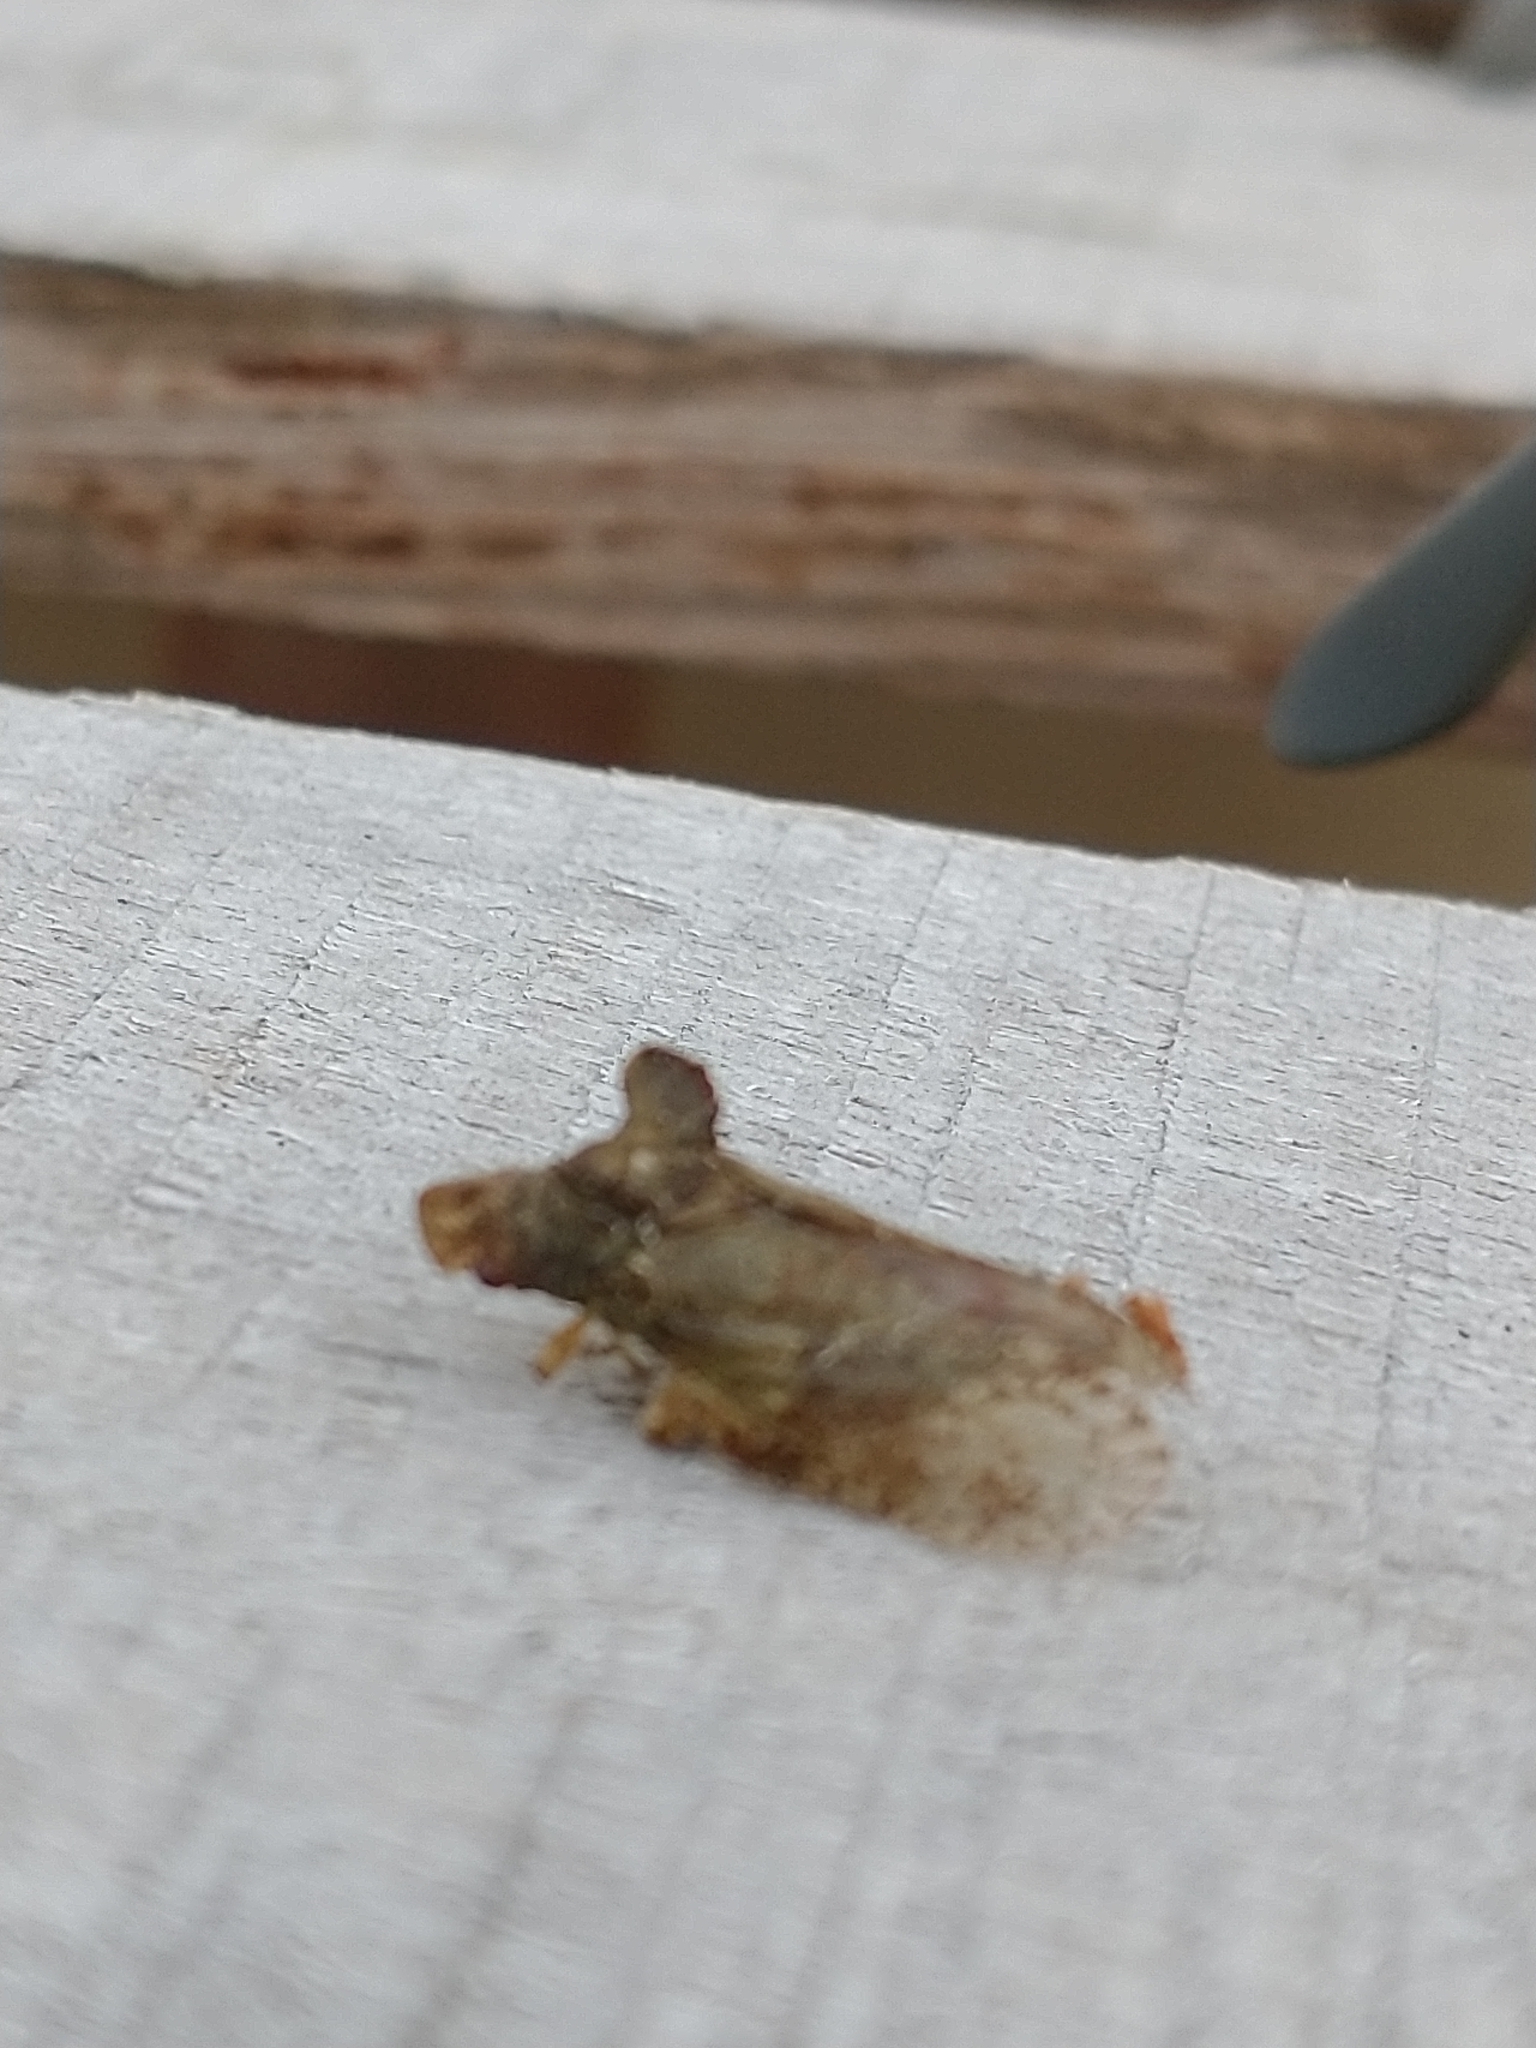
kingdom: Animalia
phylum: Arthropoda
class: Insecta
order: Hemiptera
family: Cicadellidae
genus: Ledra
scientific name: Ledra aurita
